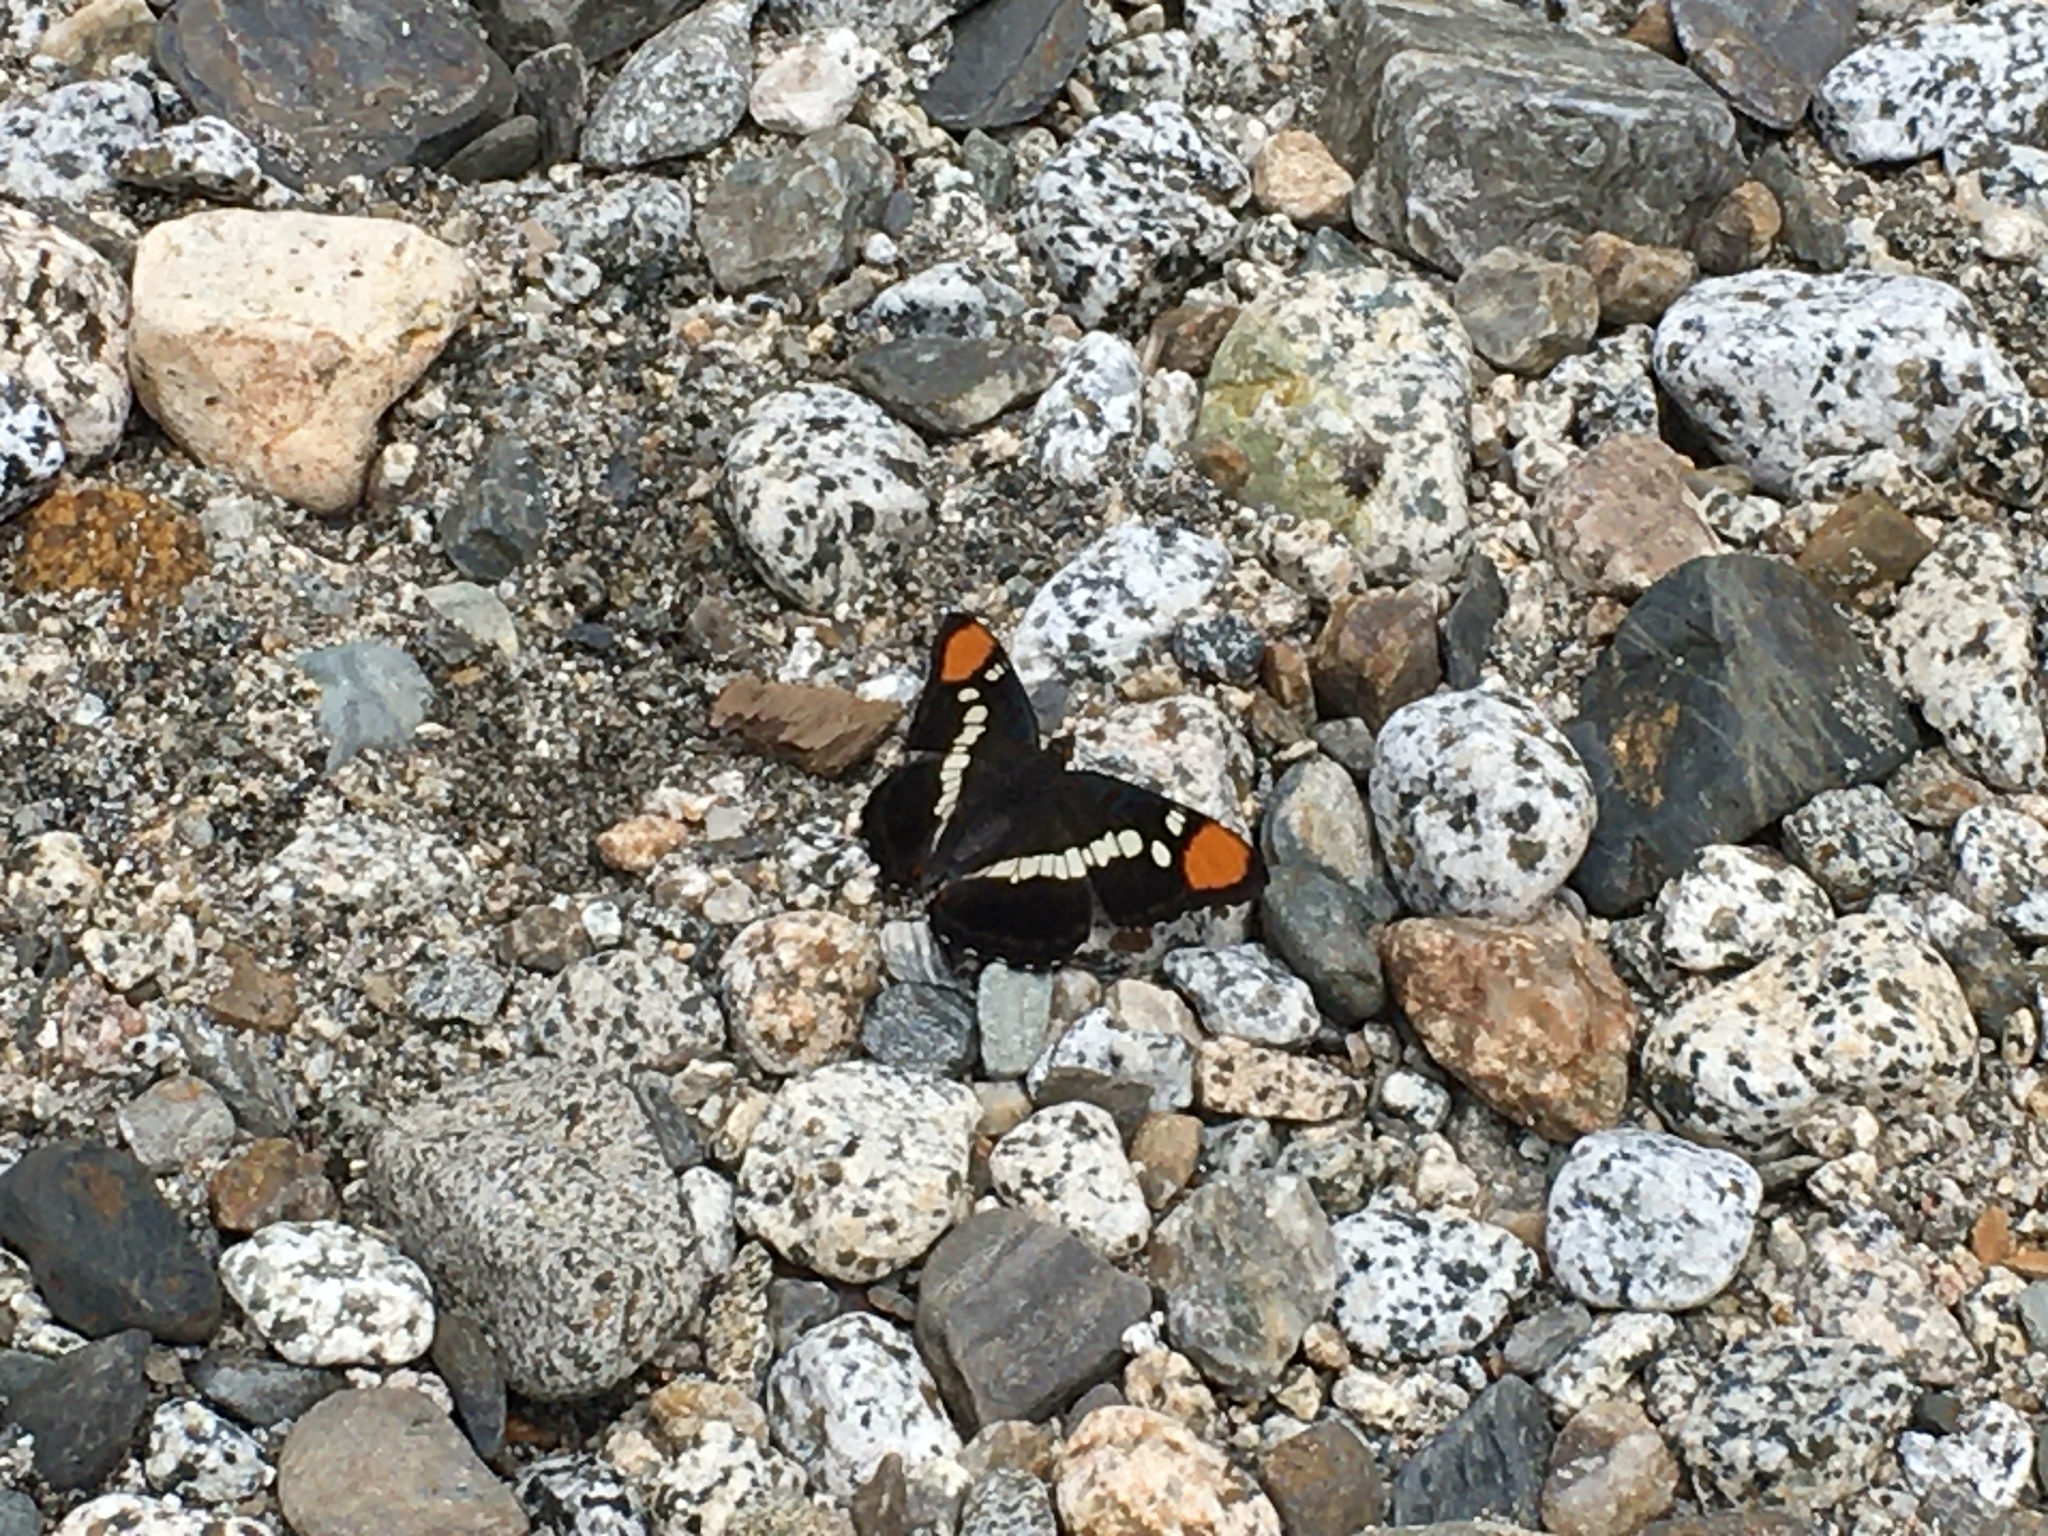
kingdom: Animalia
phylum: Arthropoda
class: Insecta
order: Lepidoptera
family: Nymphalidae
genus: Limenitis
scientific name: Limenitis bredowii
